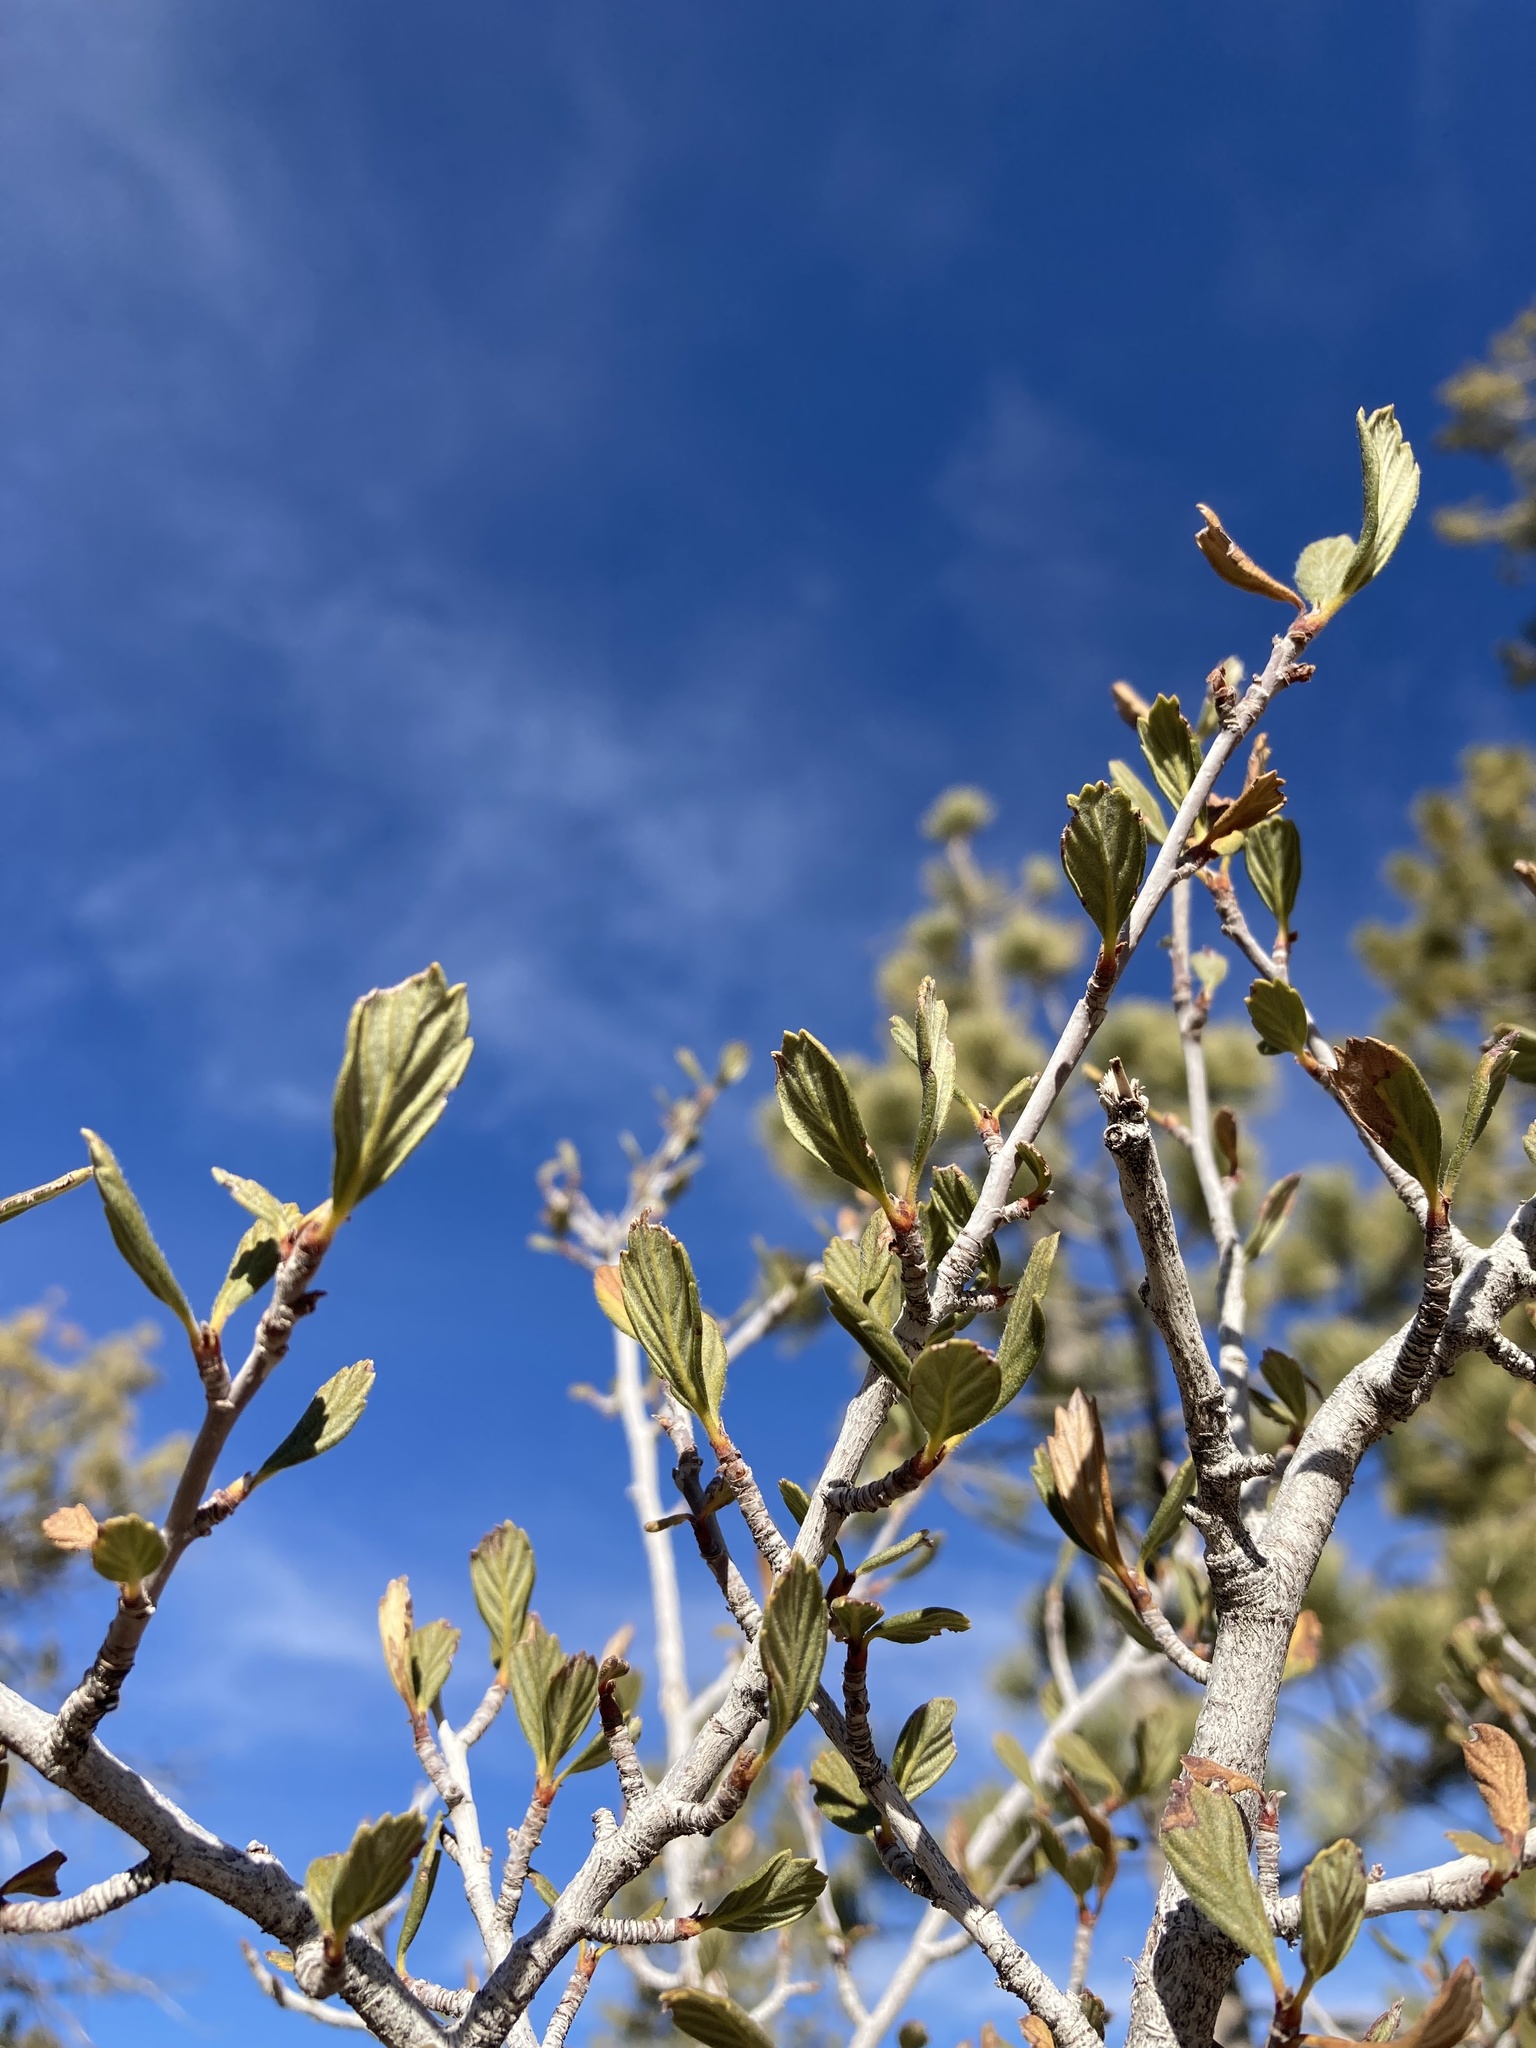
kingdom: Plantae
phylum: Tracheophyta
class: Magnoliopsida
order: Rosales
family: Rosaceae
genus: Cercocarpus
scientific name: Cercocarpus montanus
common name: Alder-leaf cercocarpus
